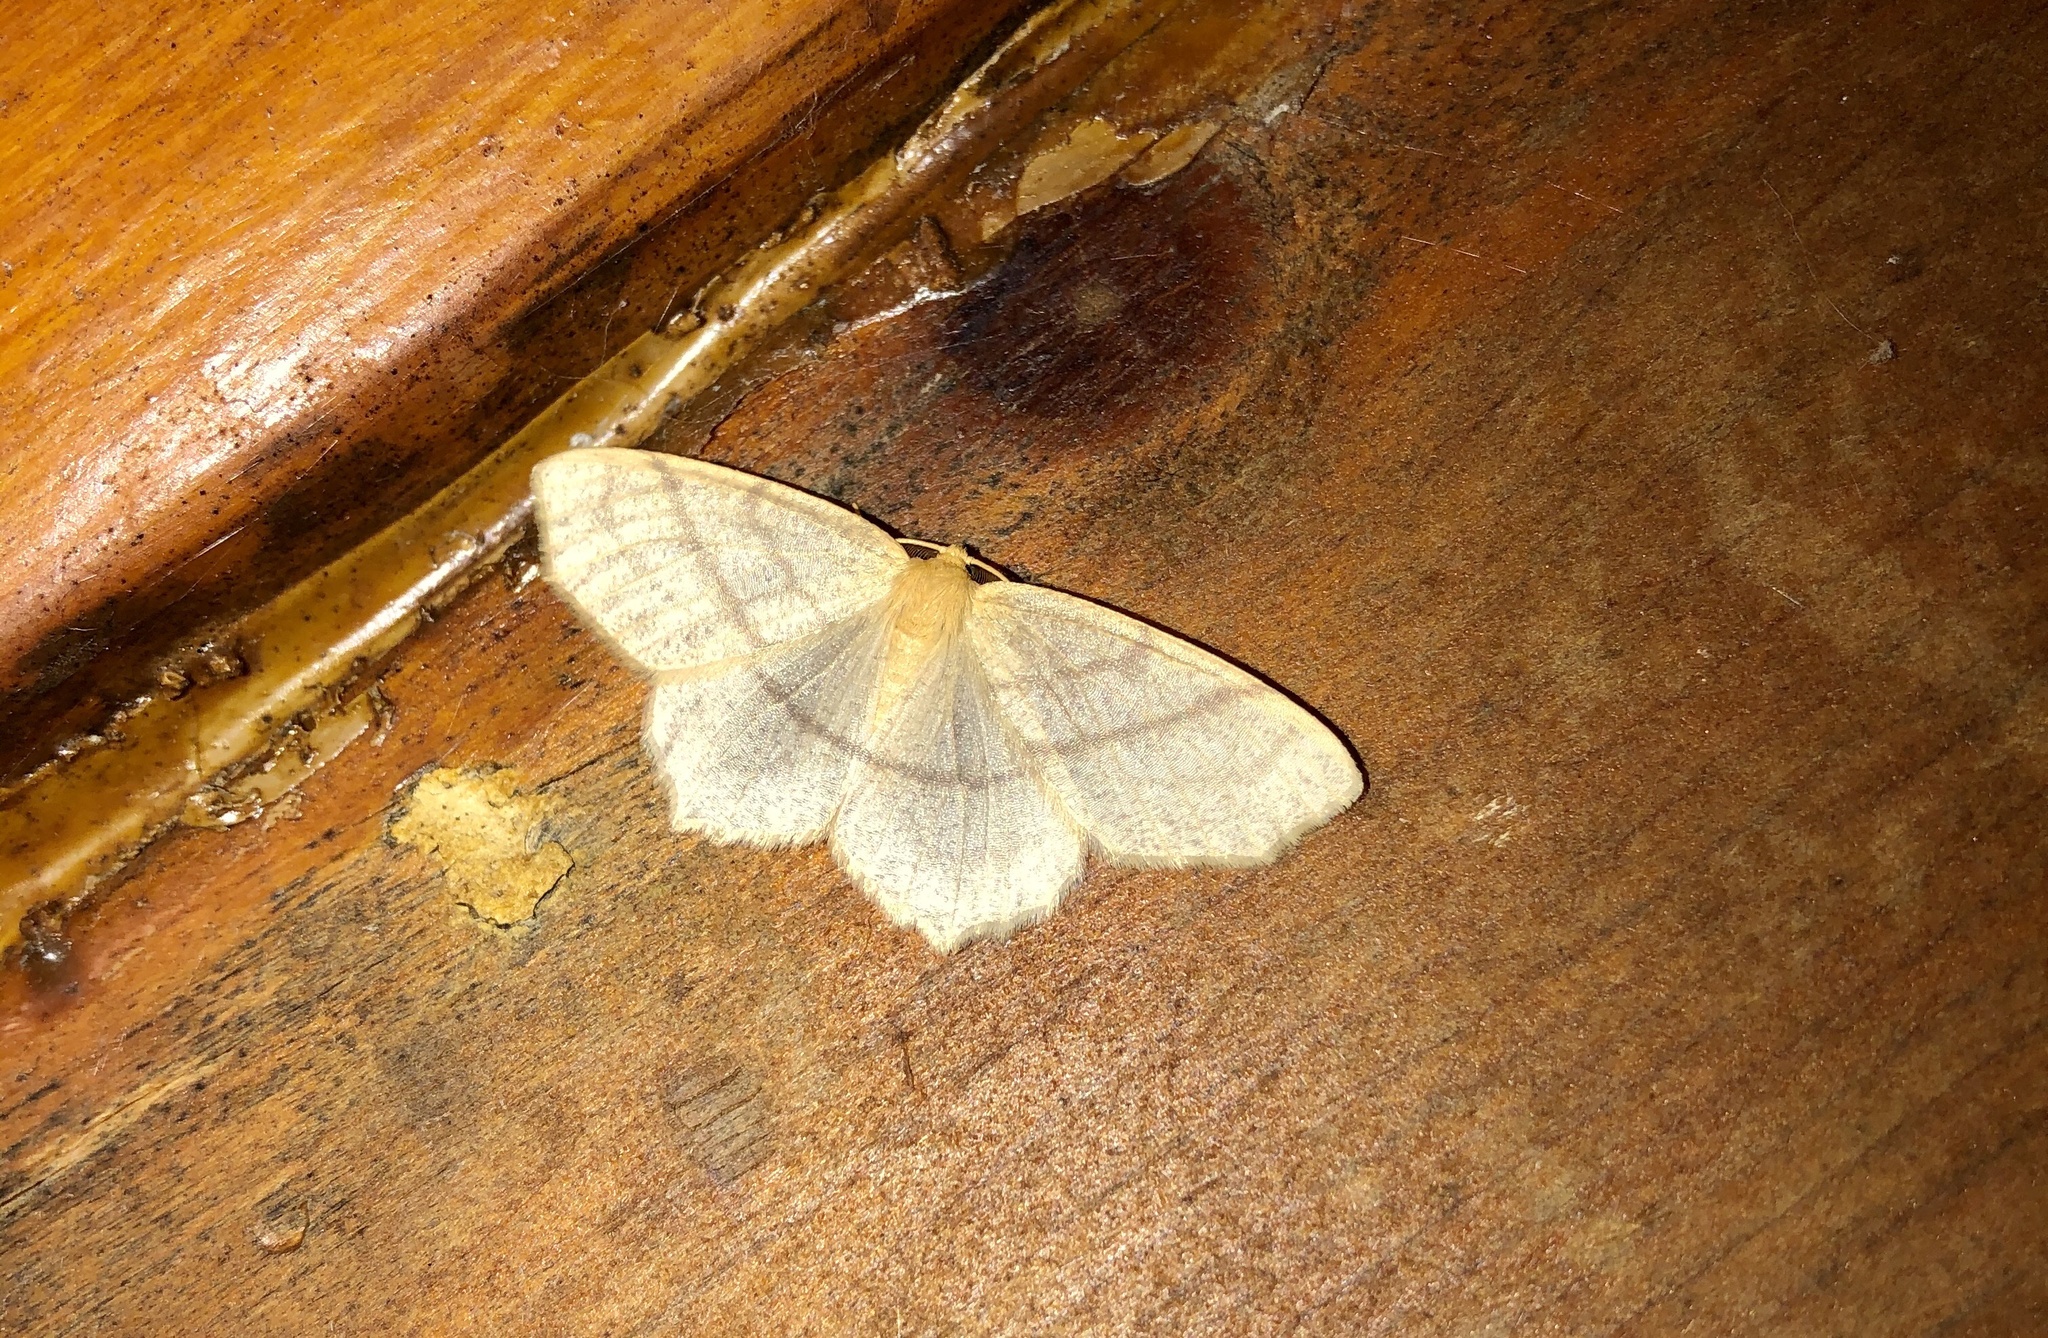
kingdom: Animalia
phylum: Arthropoda
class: Insecta
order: Lepidoptera
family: Geometridae
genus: Besma
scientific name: Besma endropiaria
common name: Straw besma
